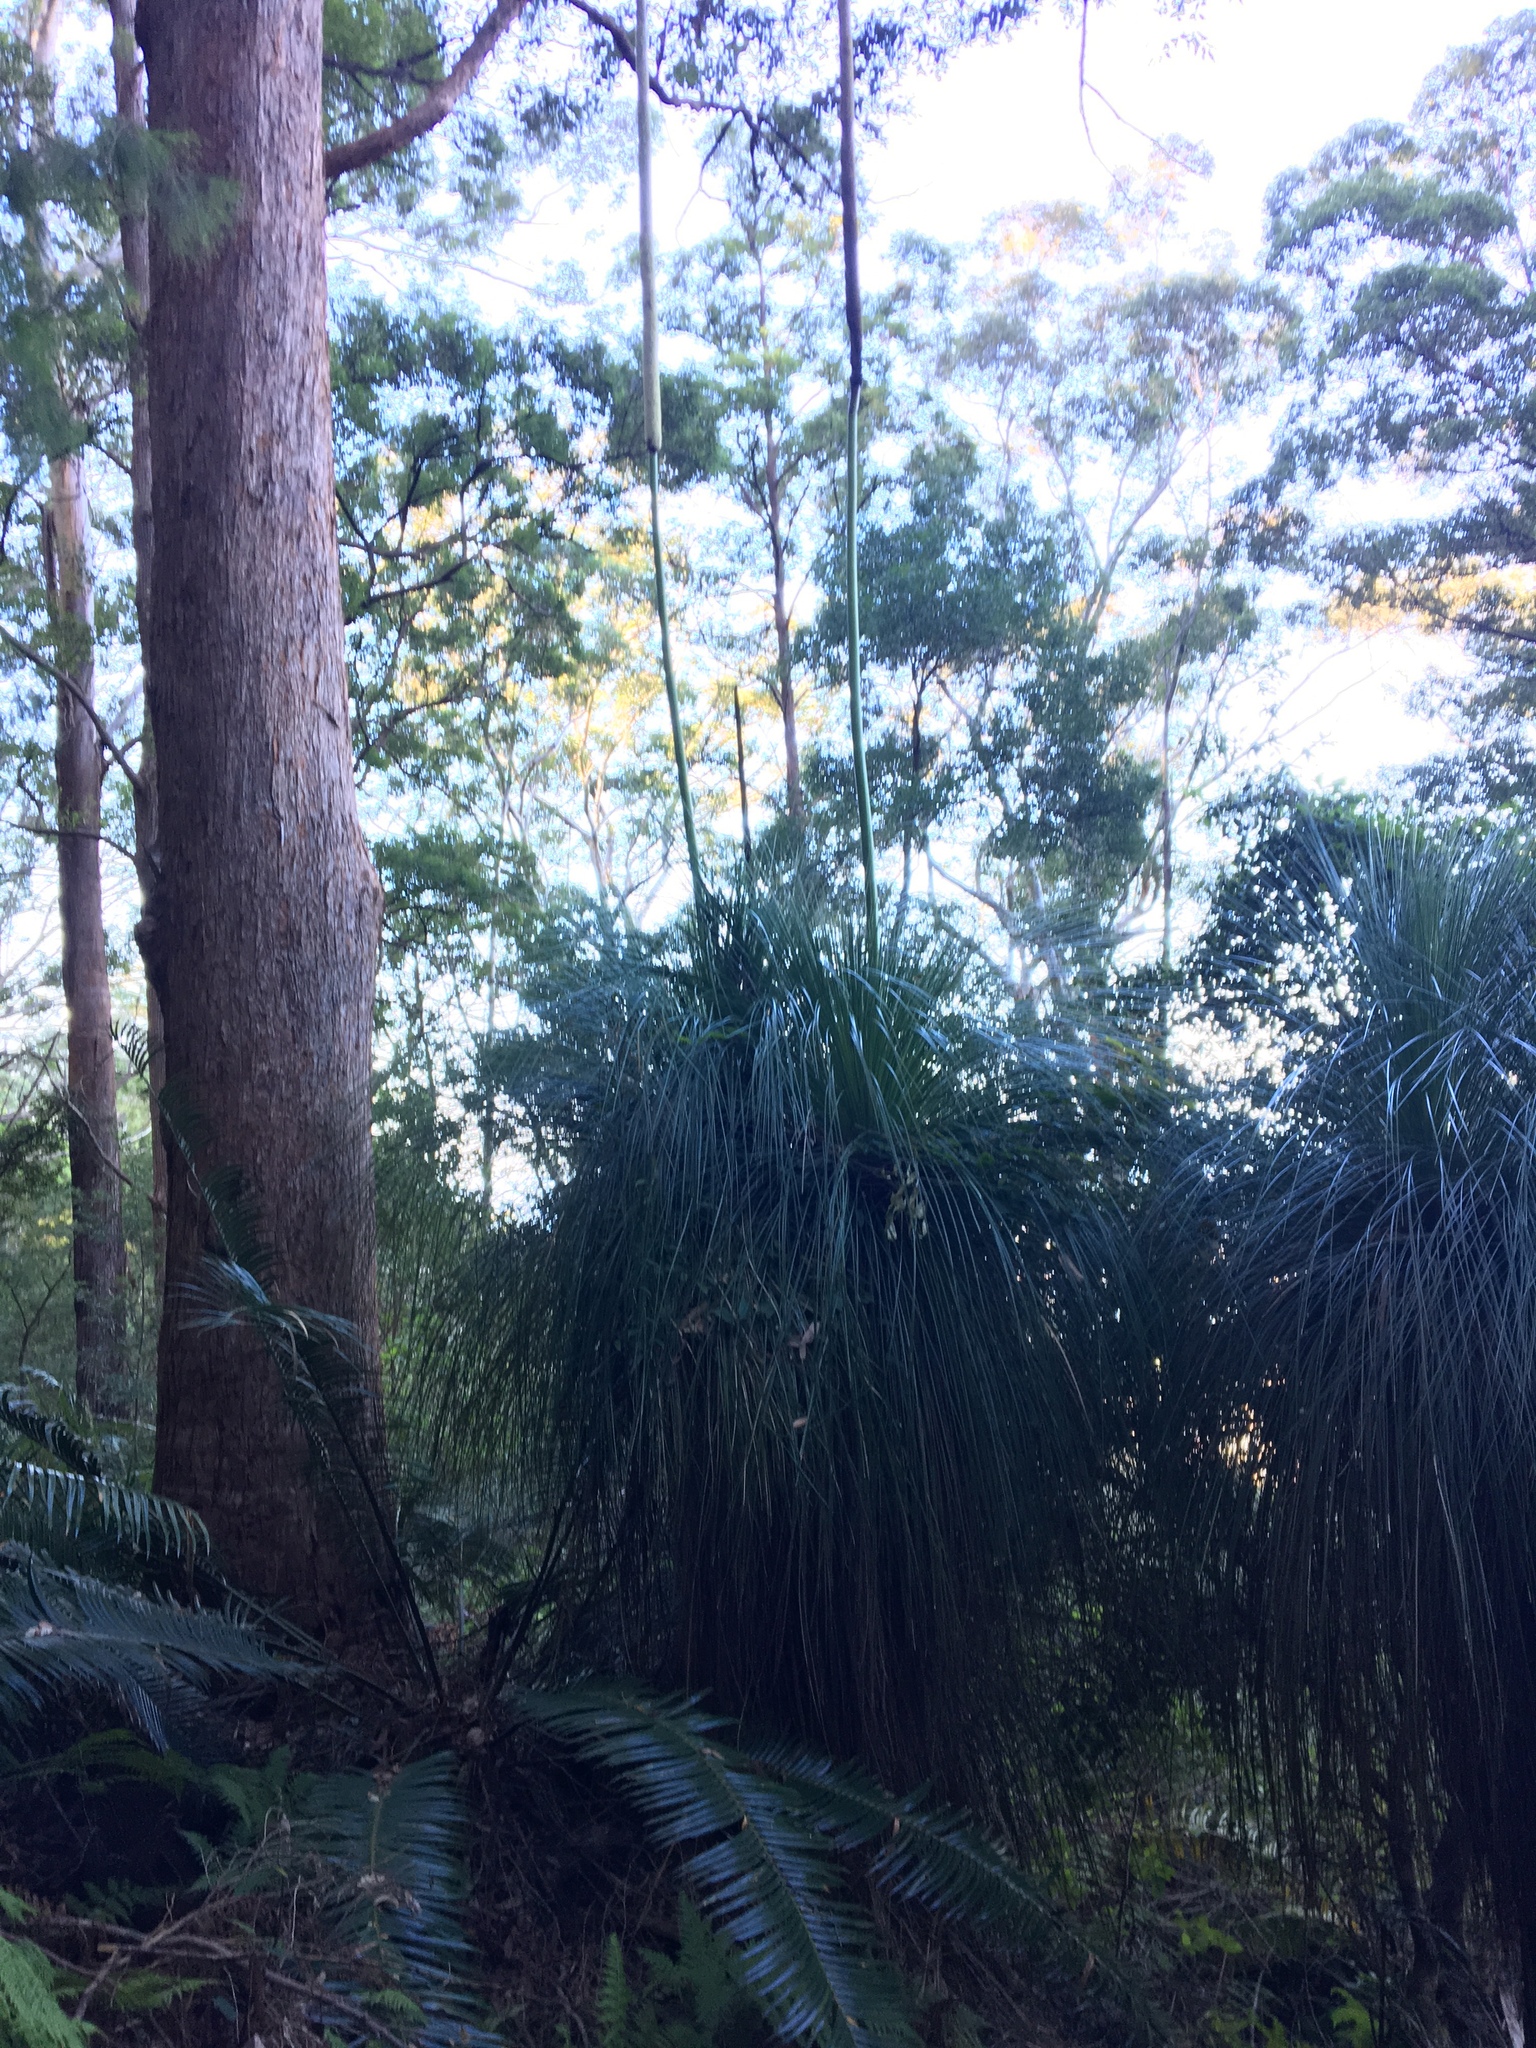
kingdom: Plantae
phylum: Tracheophyta
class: Liliopsida
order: Asparagales
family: Asphodelaceae
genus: Xanthorrhoea
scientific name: Xanthorrhoea malacophylla
